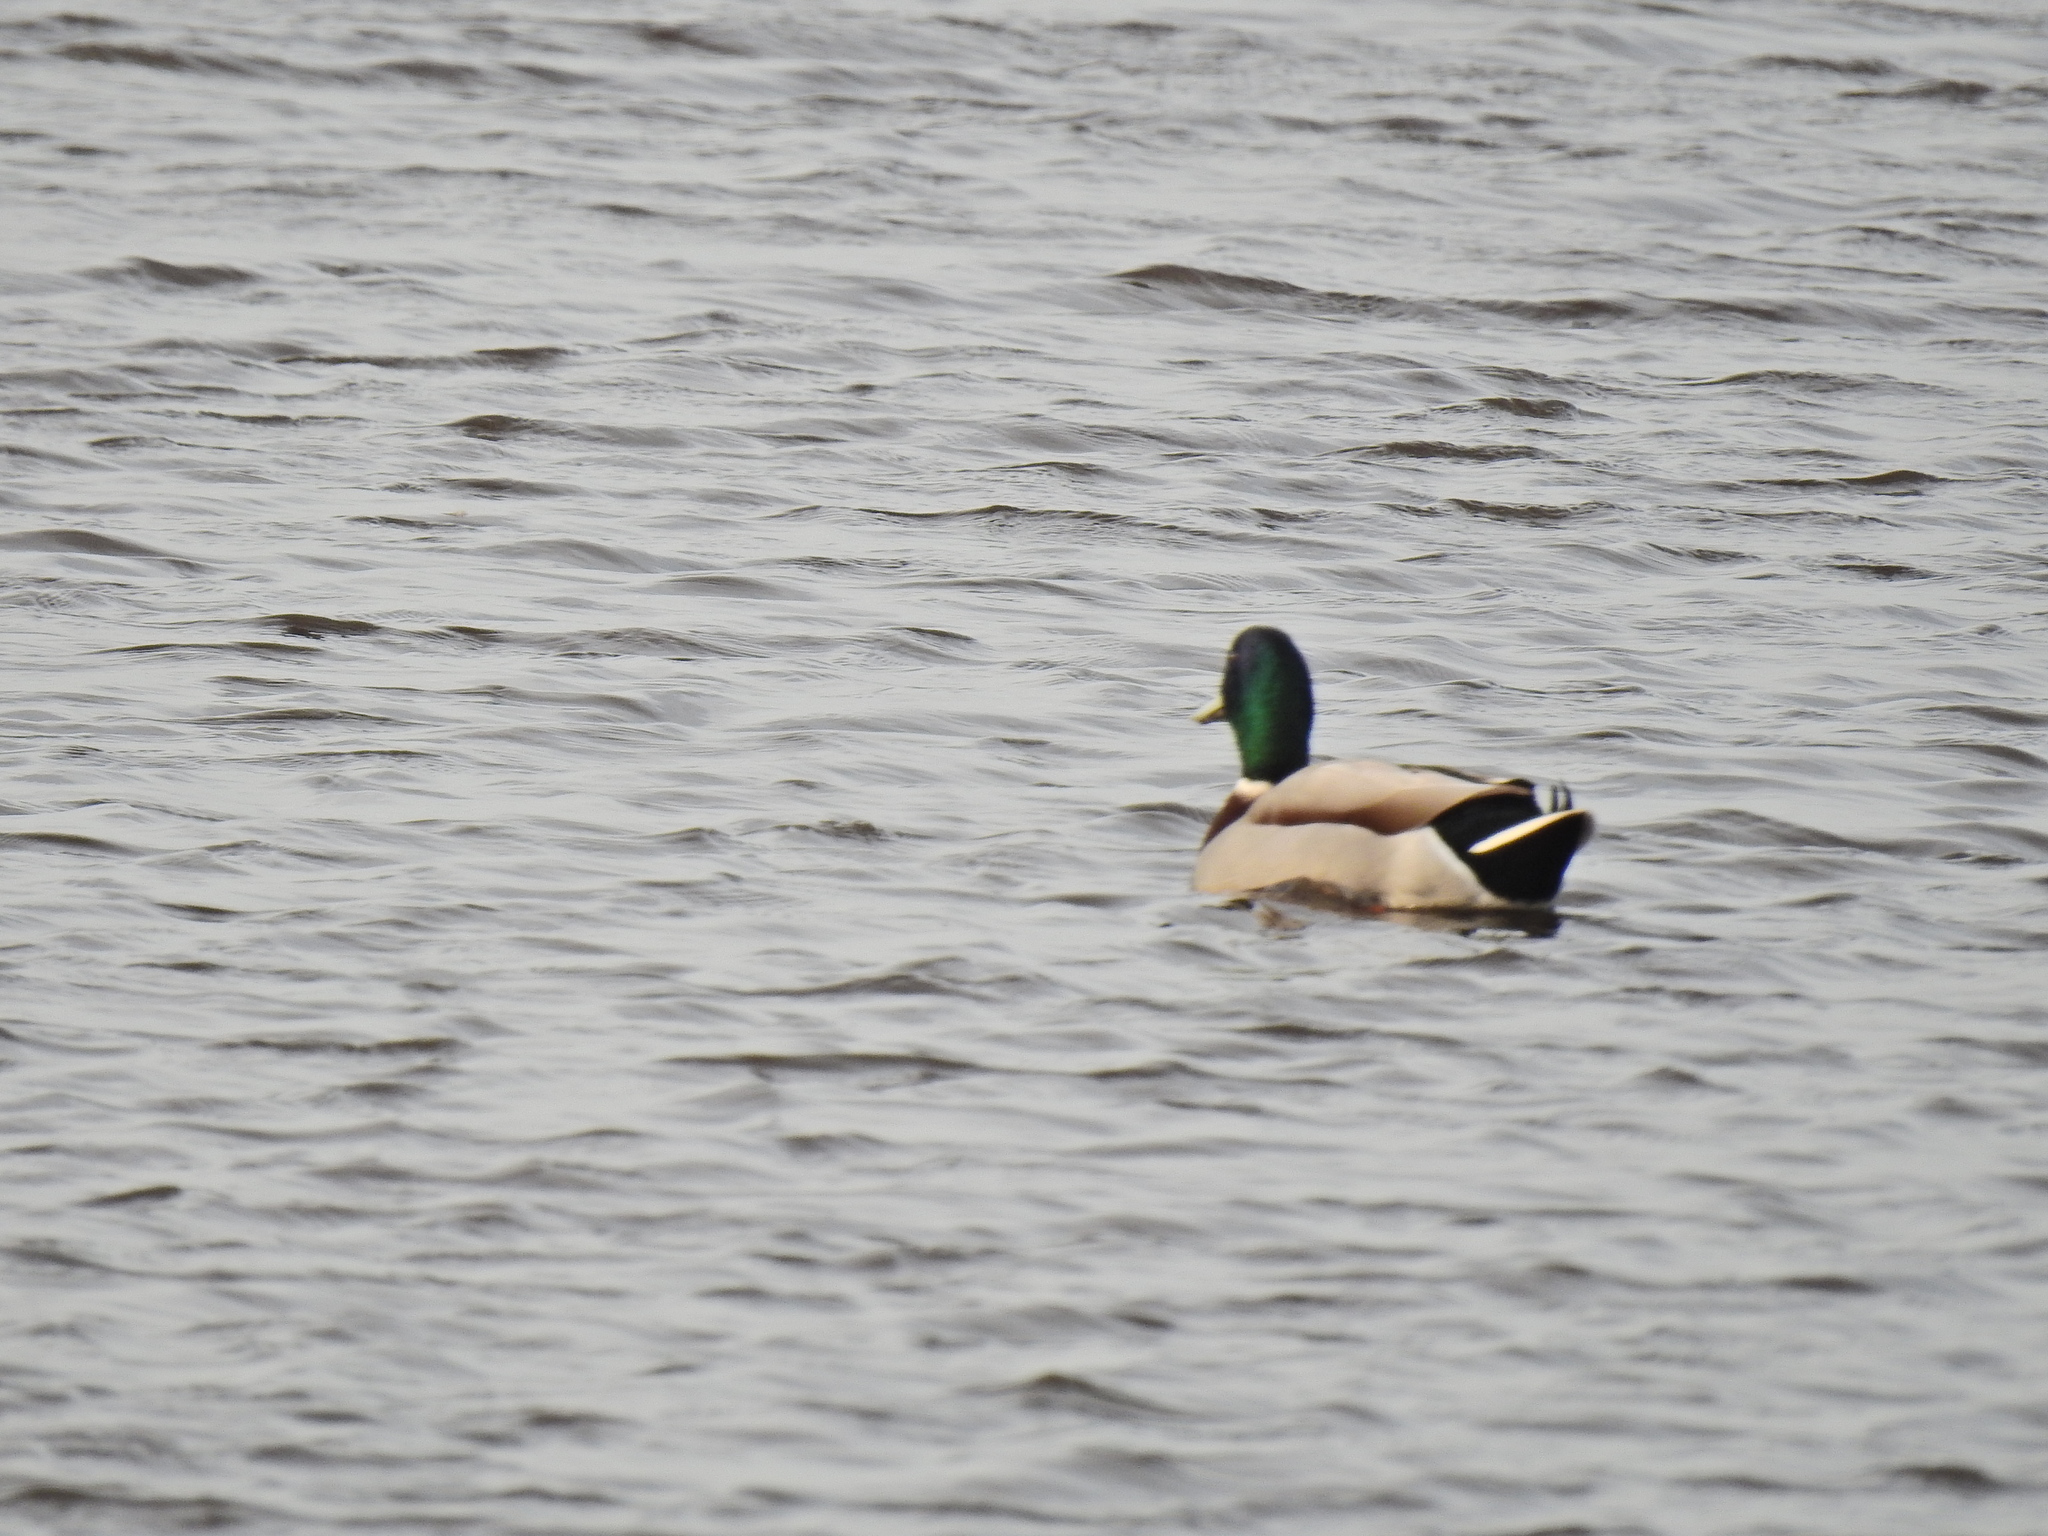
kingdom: Animalia
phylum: Chordata
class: Aves
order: Anseriformes
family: Anatidae
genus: Anas
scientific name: Anas platyrhynchos
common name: Mallard
